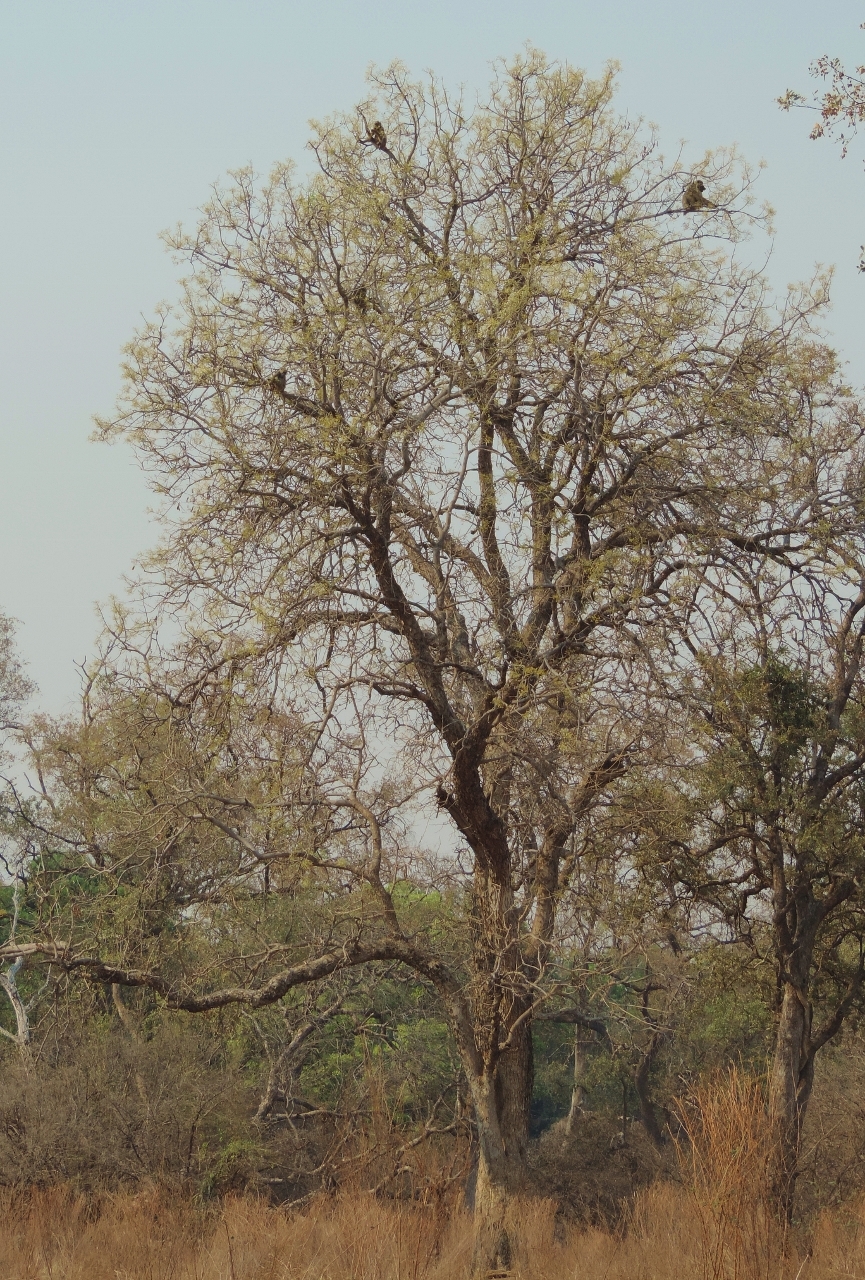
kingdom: Animalia
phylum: Chordata
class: Mammalia
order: Primates
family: Cercopithecidae
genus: Papio
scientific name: Papio ursinus
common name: Chacma baboon
